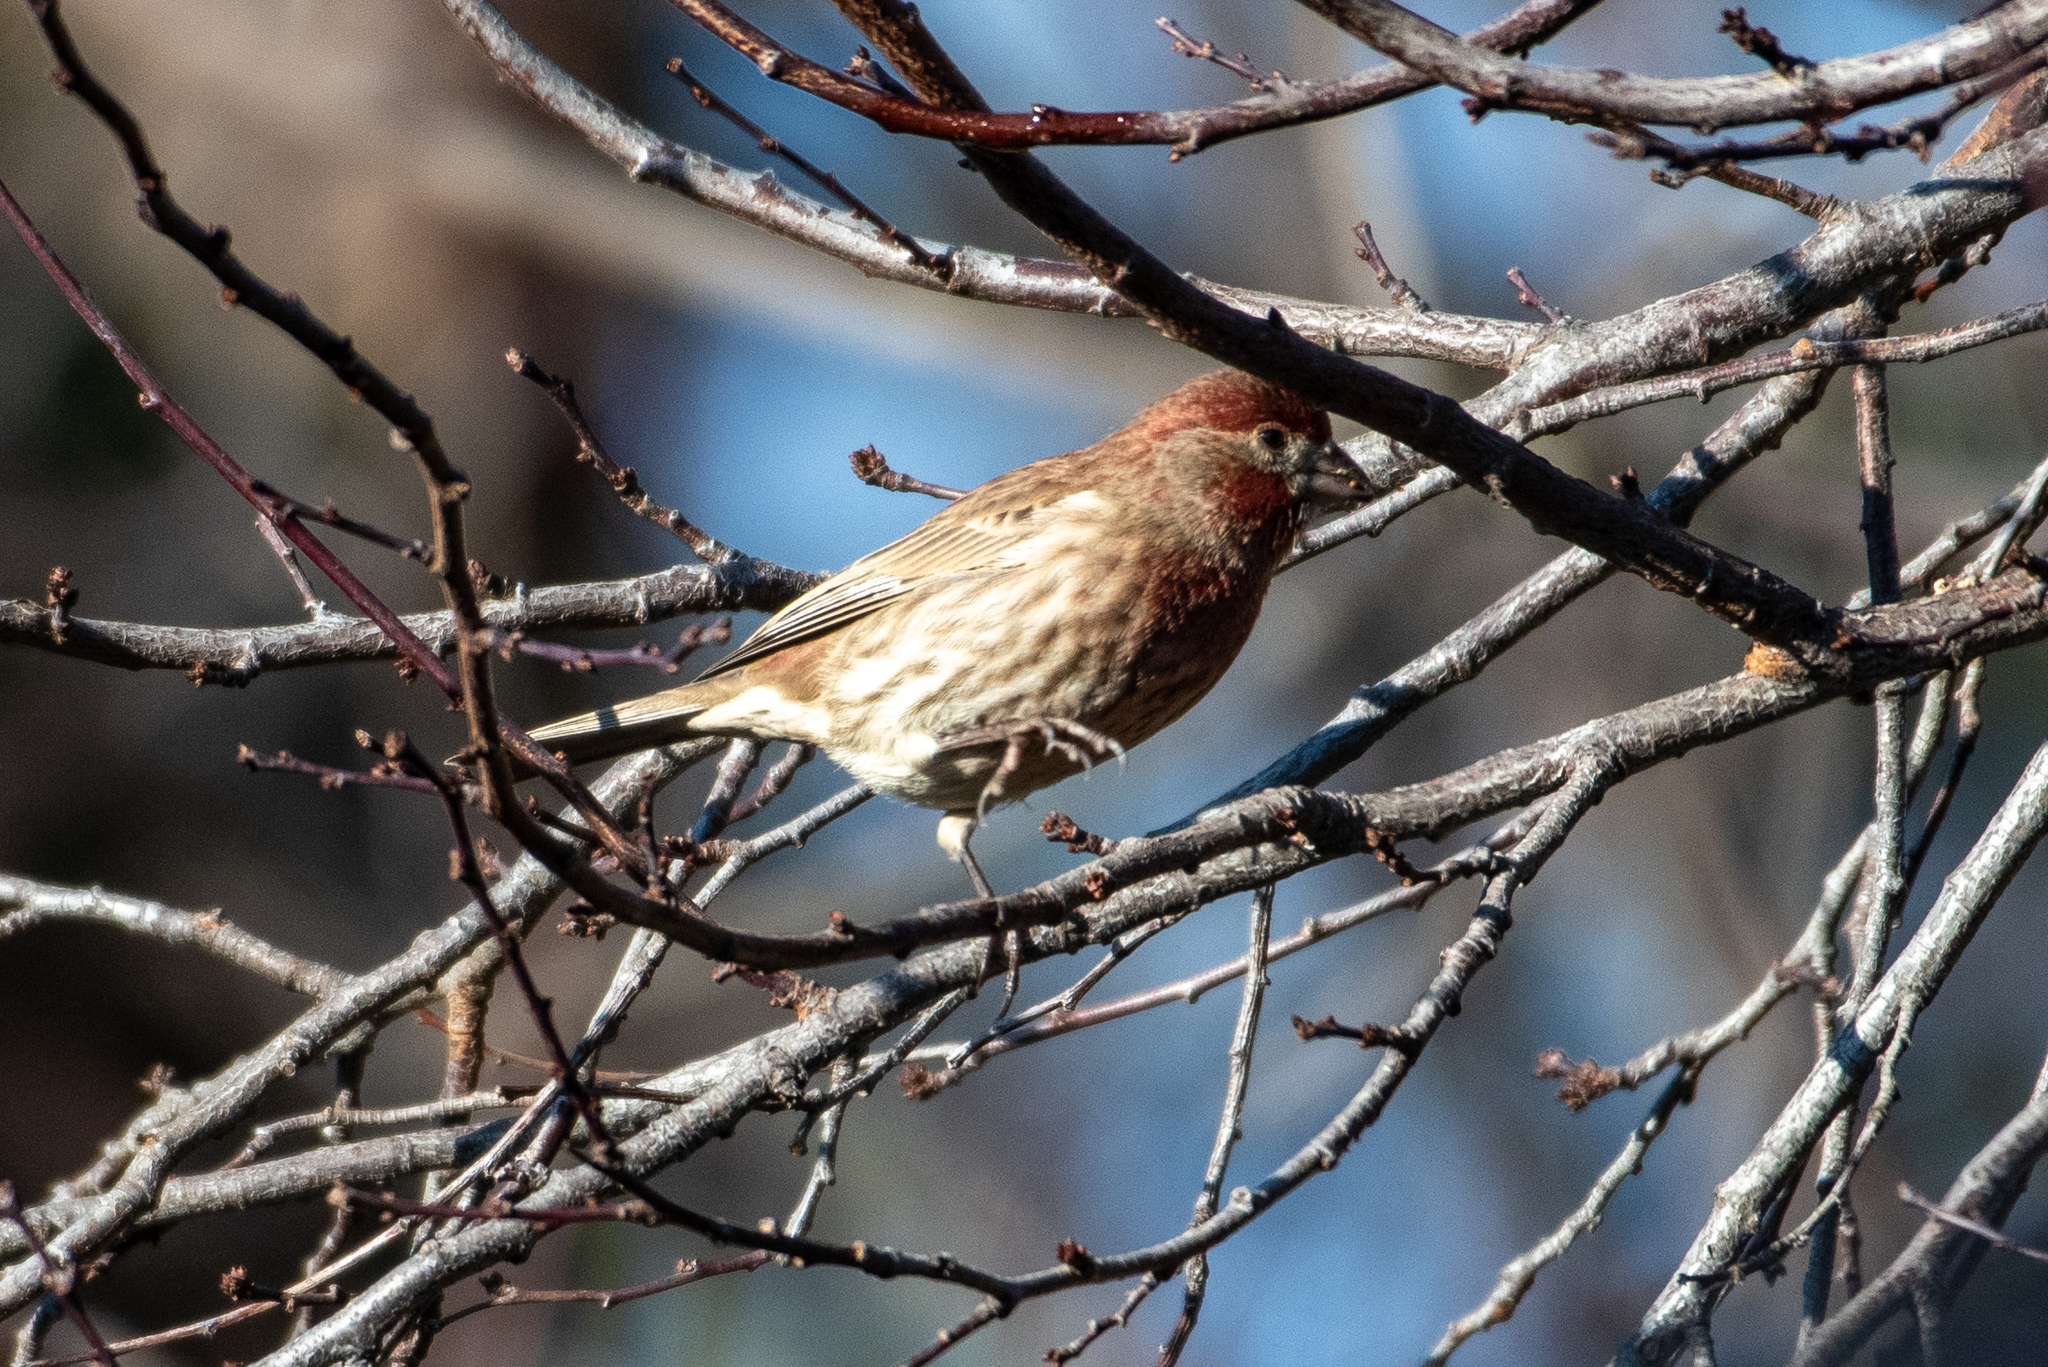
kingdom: Animalia
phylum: Chordata
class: Aves
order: Passeriformes
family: Fringillidae
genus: Haemorhous
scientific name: Haemorhous mexicanus
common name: House finch
